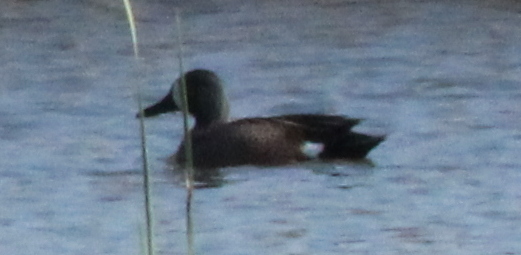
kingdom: Animalia
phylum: Chordata
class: Aves
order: Anseriformes
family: Anatidae
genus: Spatula
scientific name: Spatula discors
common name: Blue-winged teal
